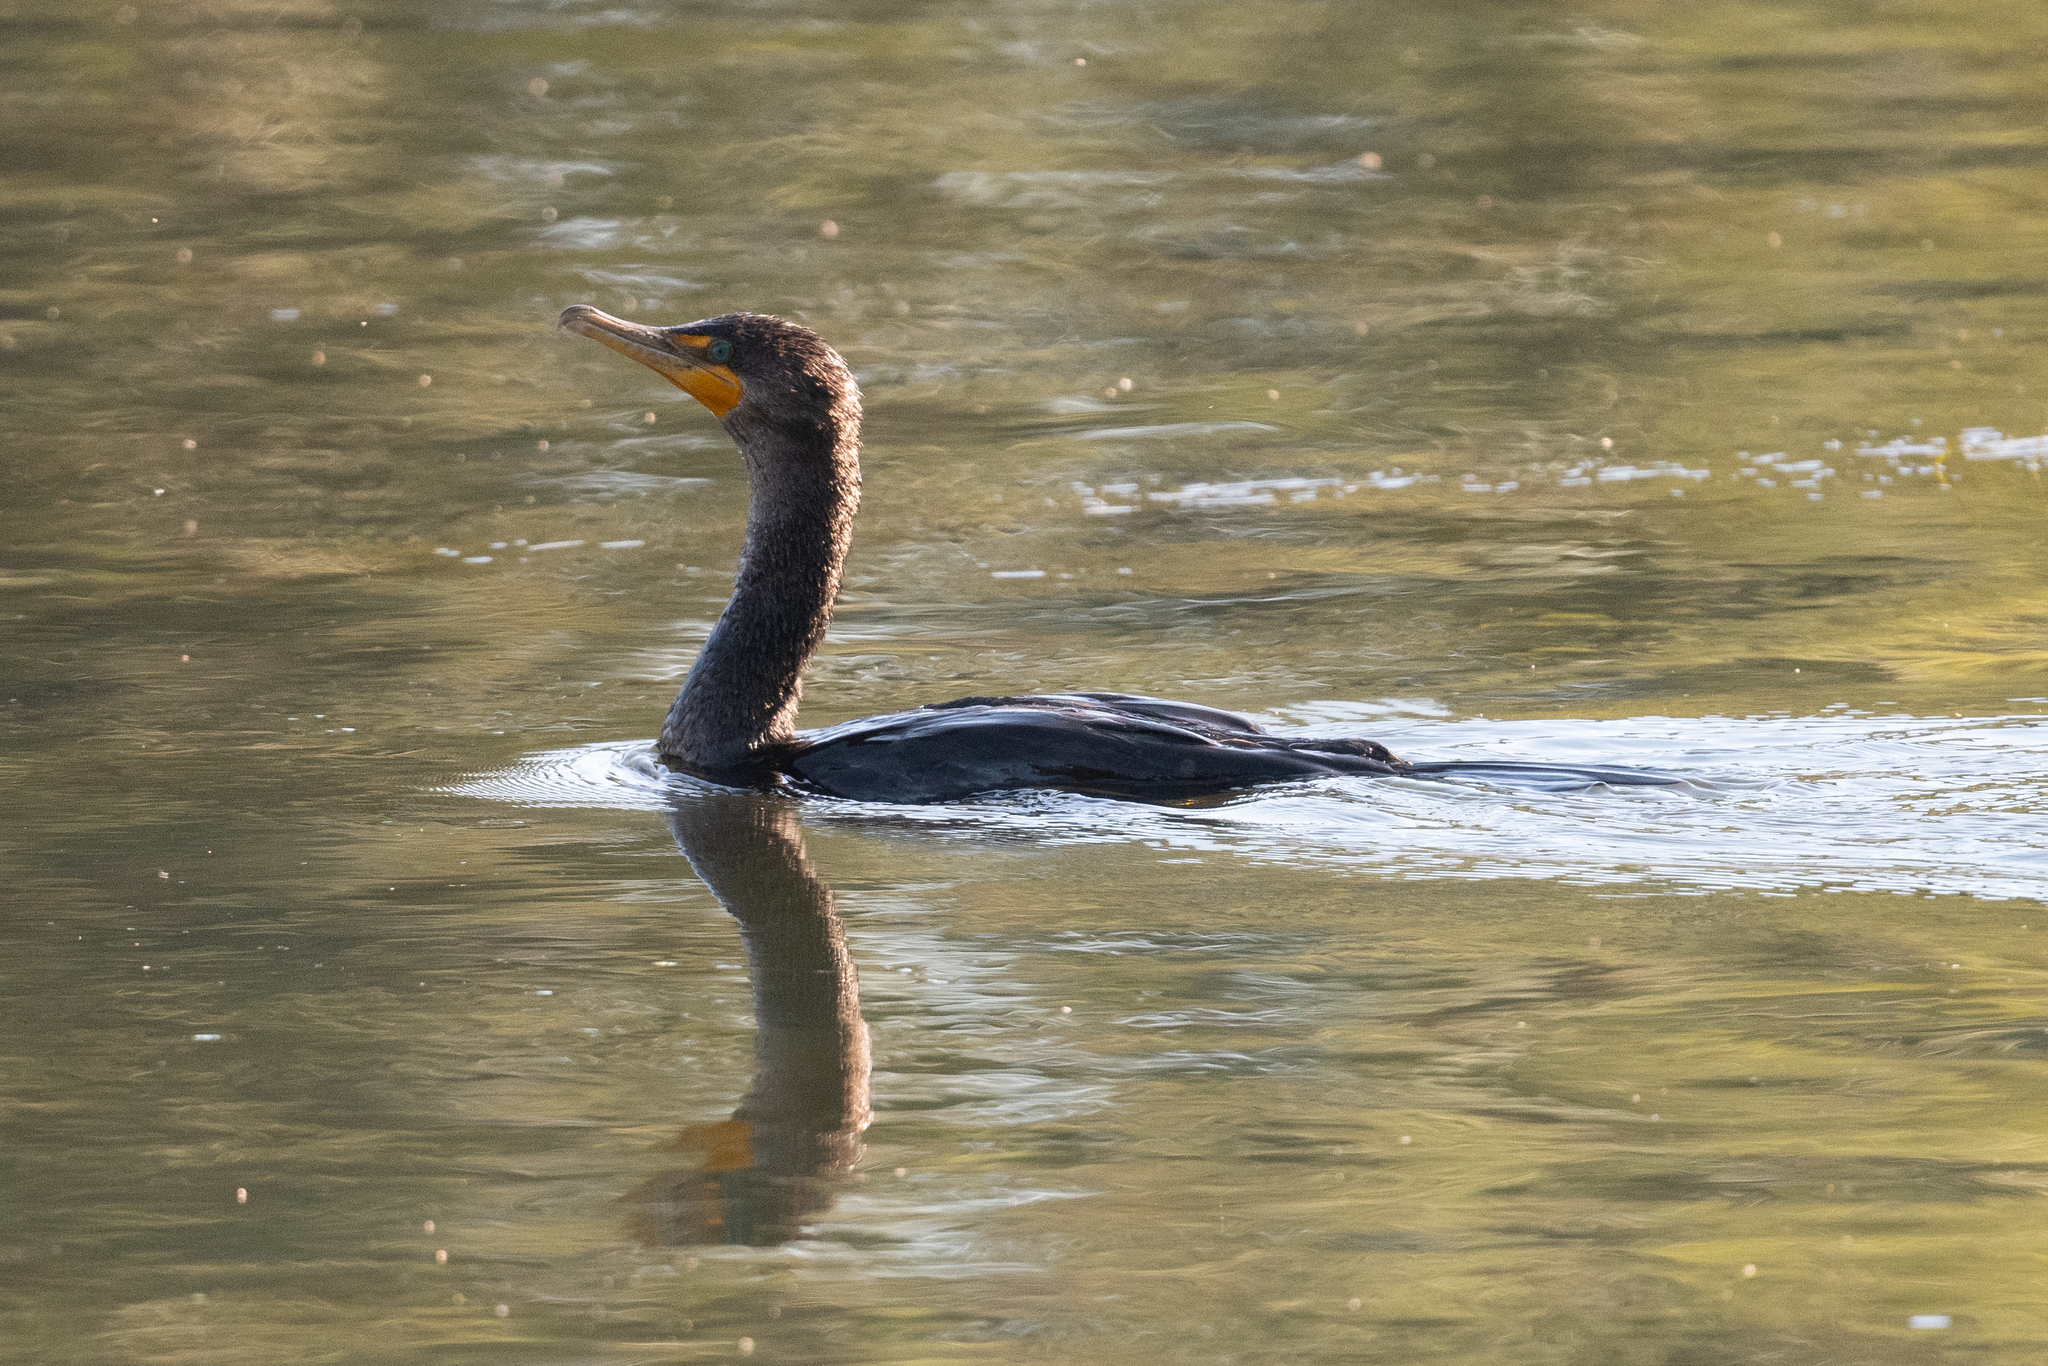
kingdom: Animalia
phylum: Chordata
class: Aves
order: Suliformes
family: Phalacrocoracidae
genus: Phalacrocorax
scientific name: Phalacrocorax auritus
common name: Double-crested cormorant
